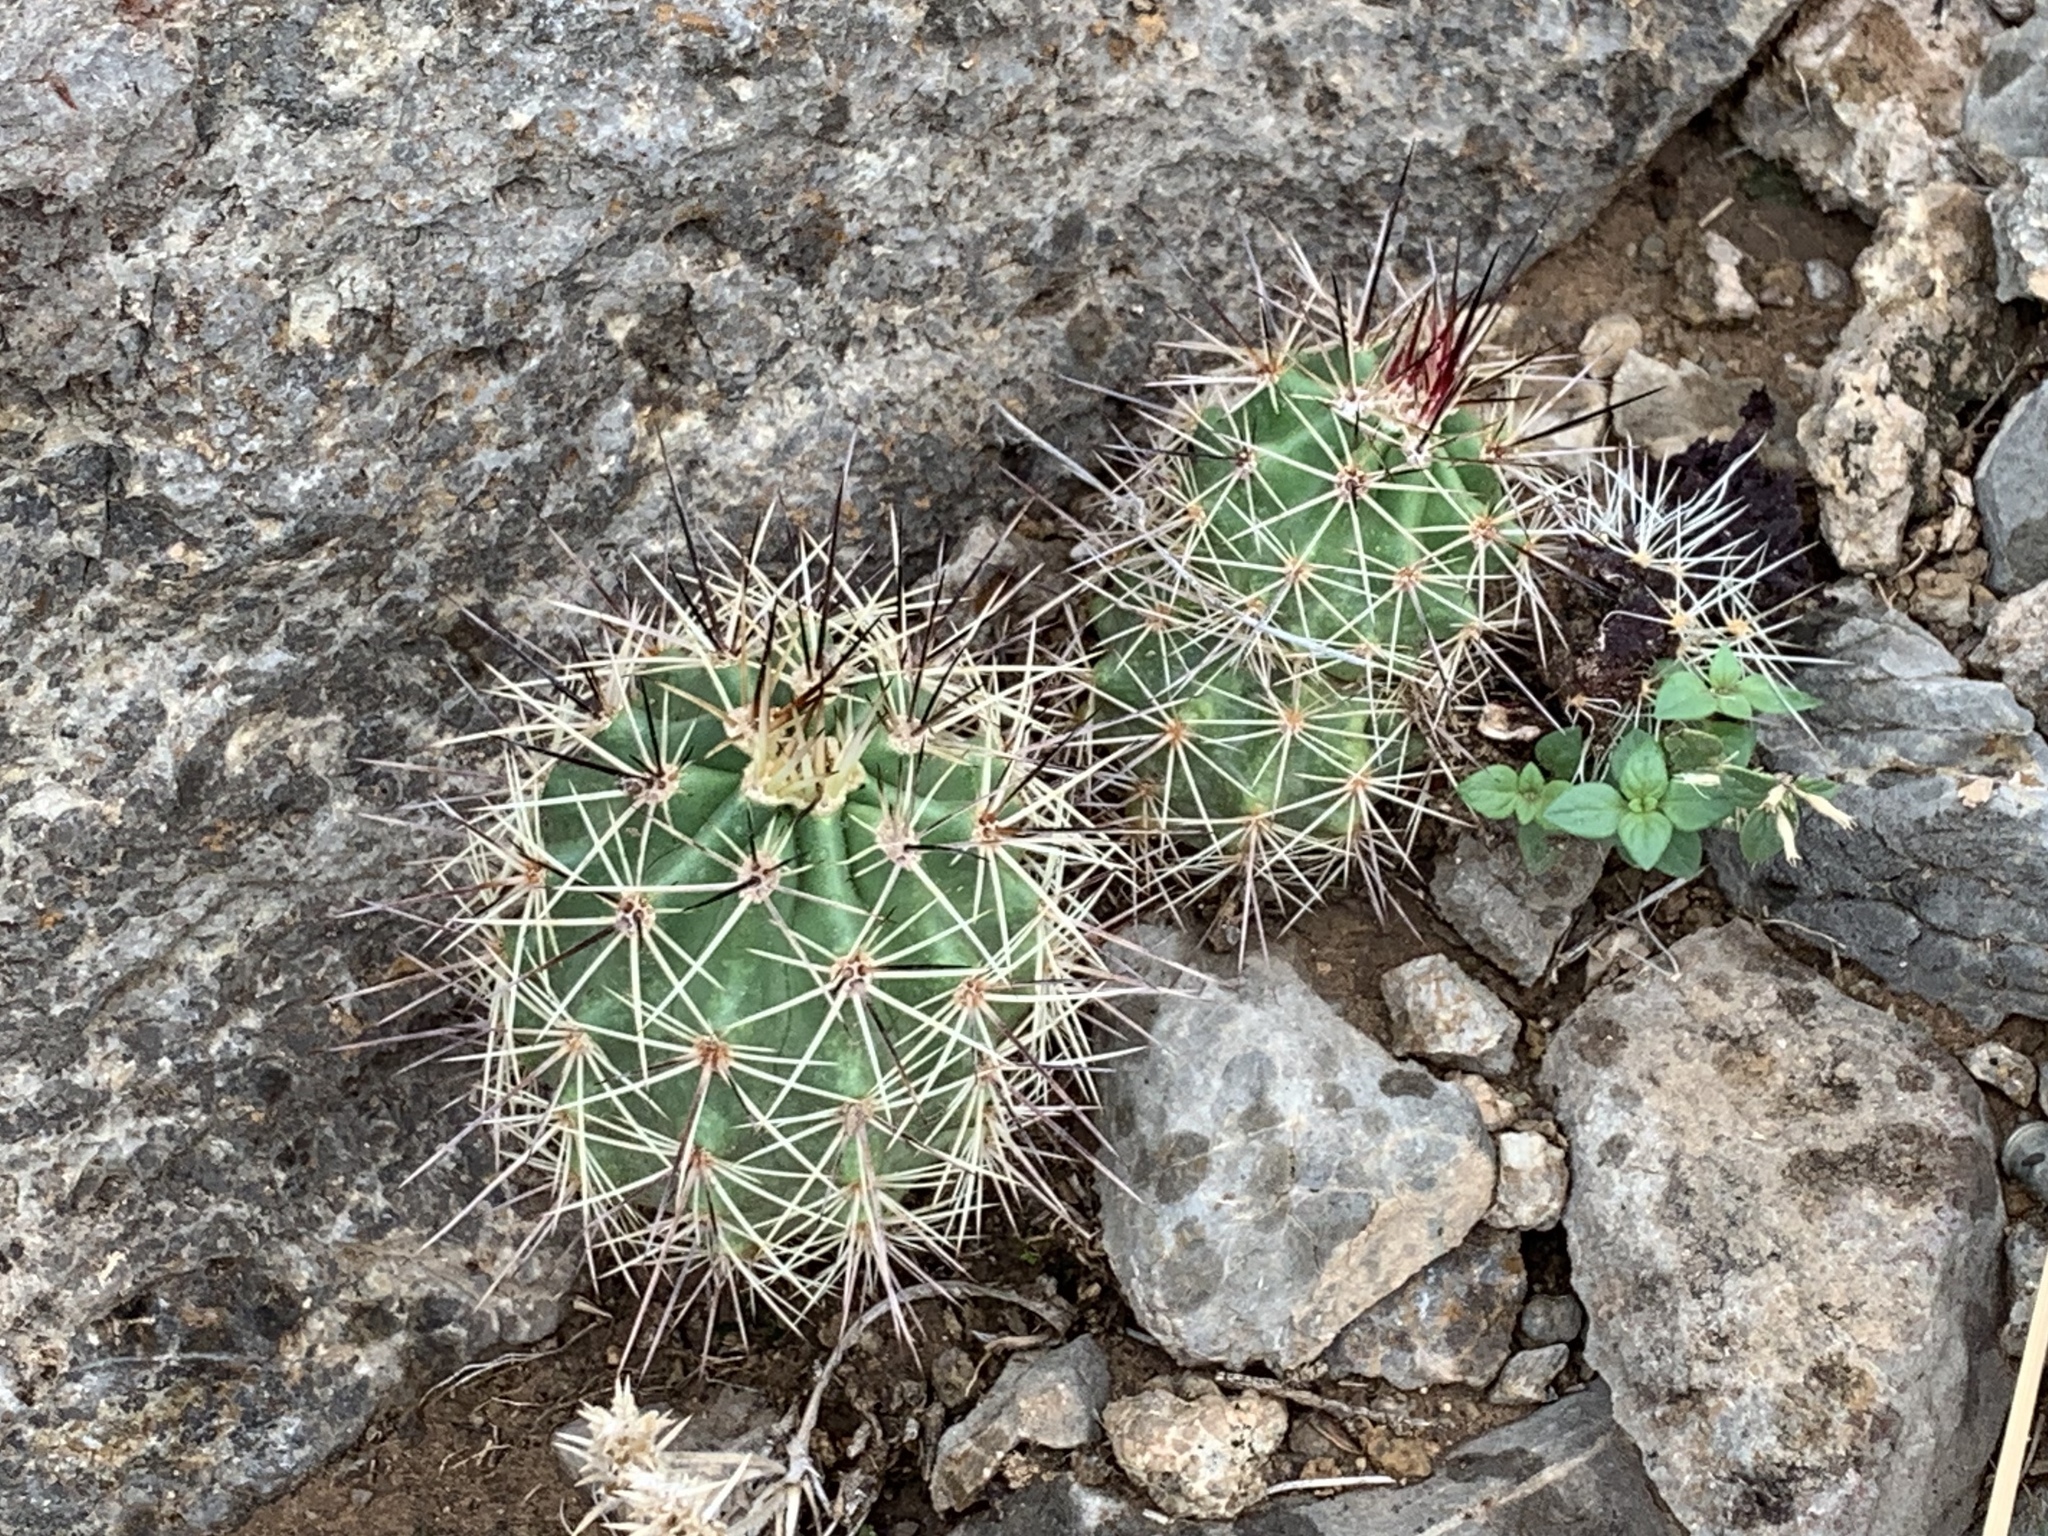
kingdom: Plantae
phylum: Tracheophyta
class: Magnoliopsida
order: Caryophyllales
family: Cactaceae
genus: Echinocereus
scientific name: Echinocereus coccineus
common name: Scarlet hedgehog cactus
